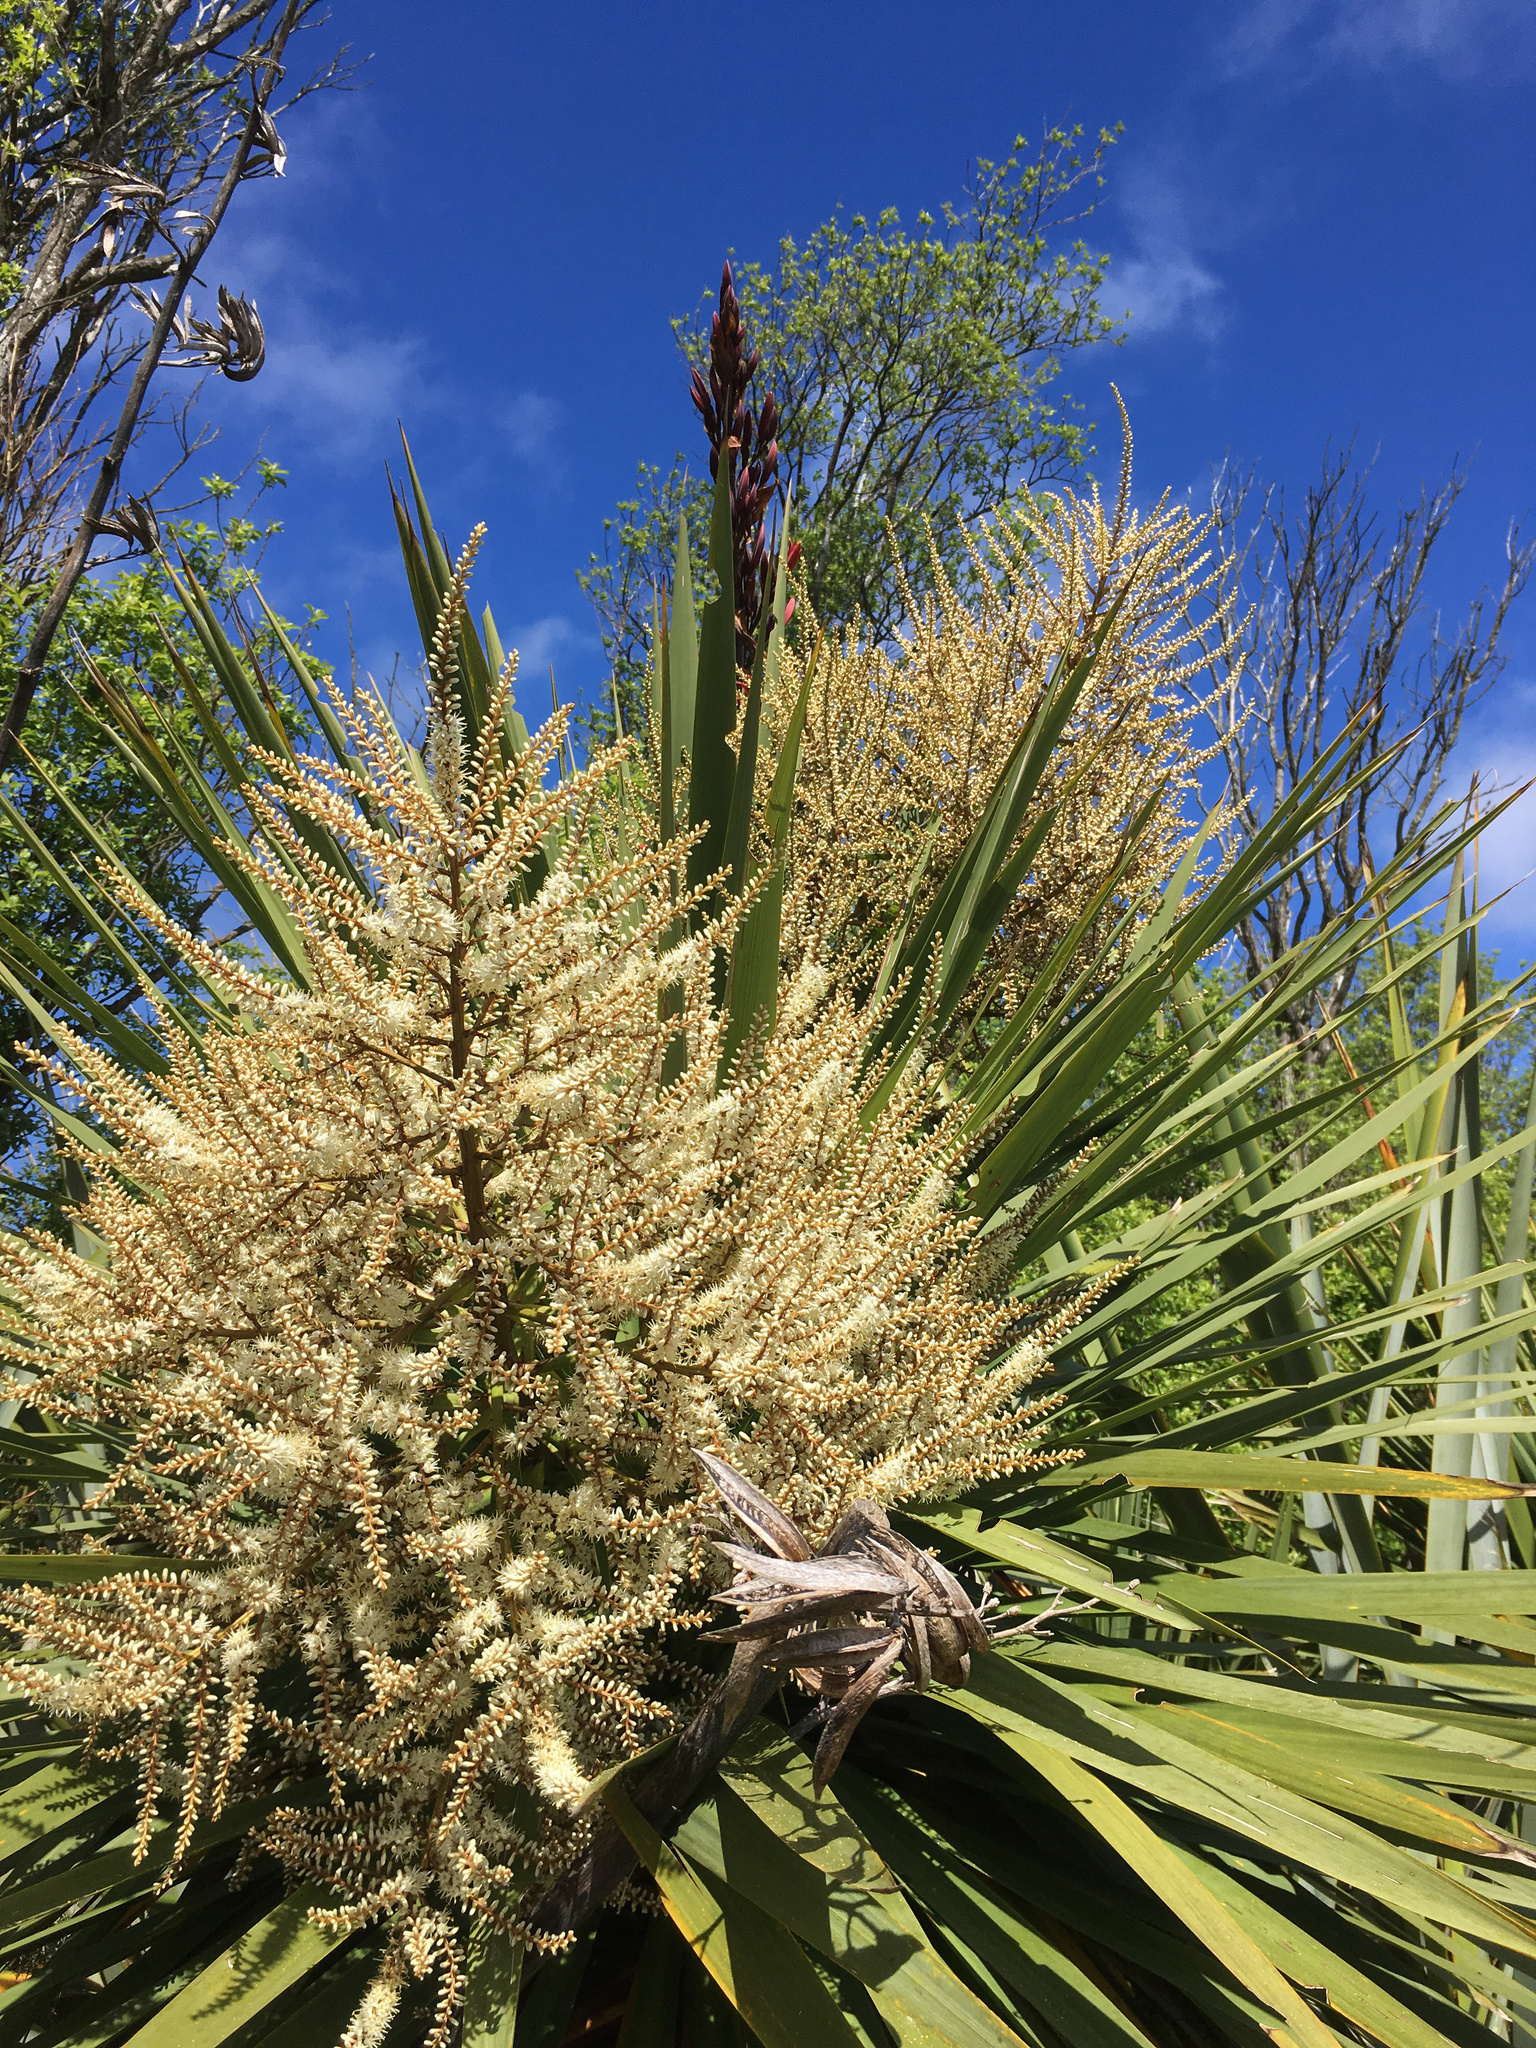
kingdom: Plantae
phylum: Tracheophyta
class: Liliopsida
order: Asparagales
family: Asparagaceae
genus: Cordyline
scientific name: Cordyline australis
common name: Cabbage-palm
